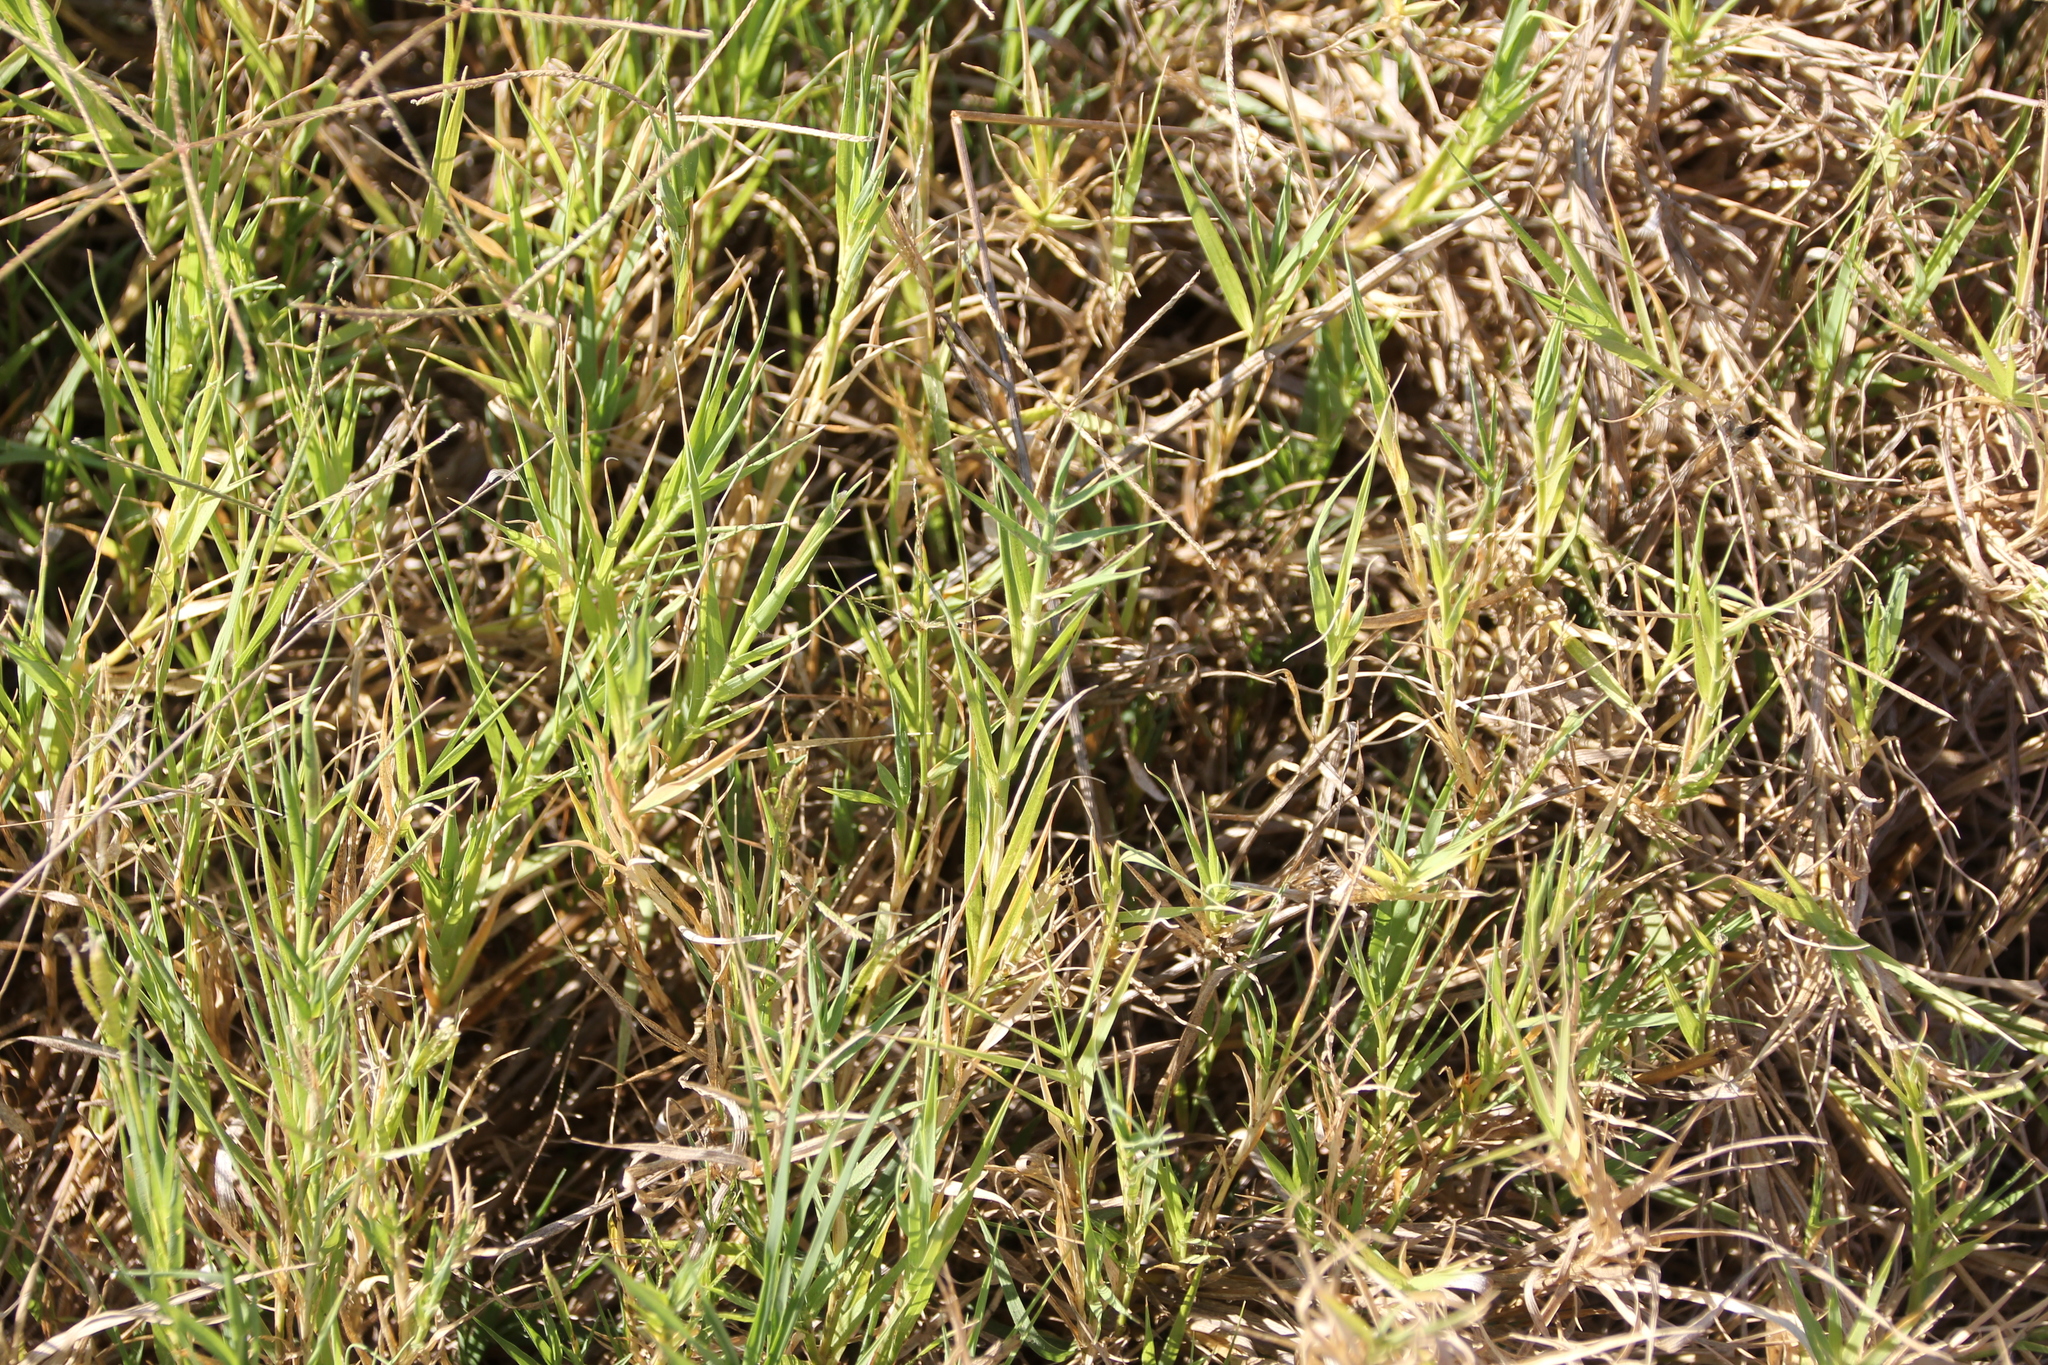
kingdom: Plantae
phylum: Tracheophyta
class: Liliopsida
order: Poales
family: Poaceae
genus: Distichlis
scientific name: Distichlis spicata
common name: Saltgrass
